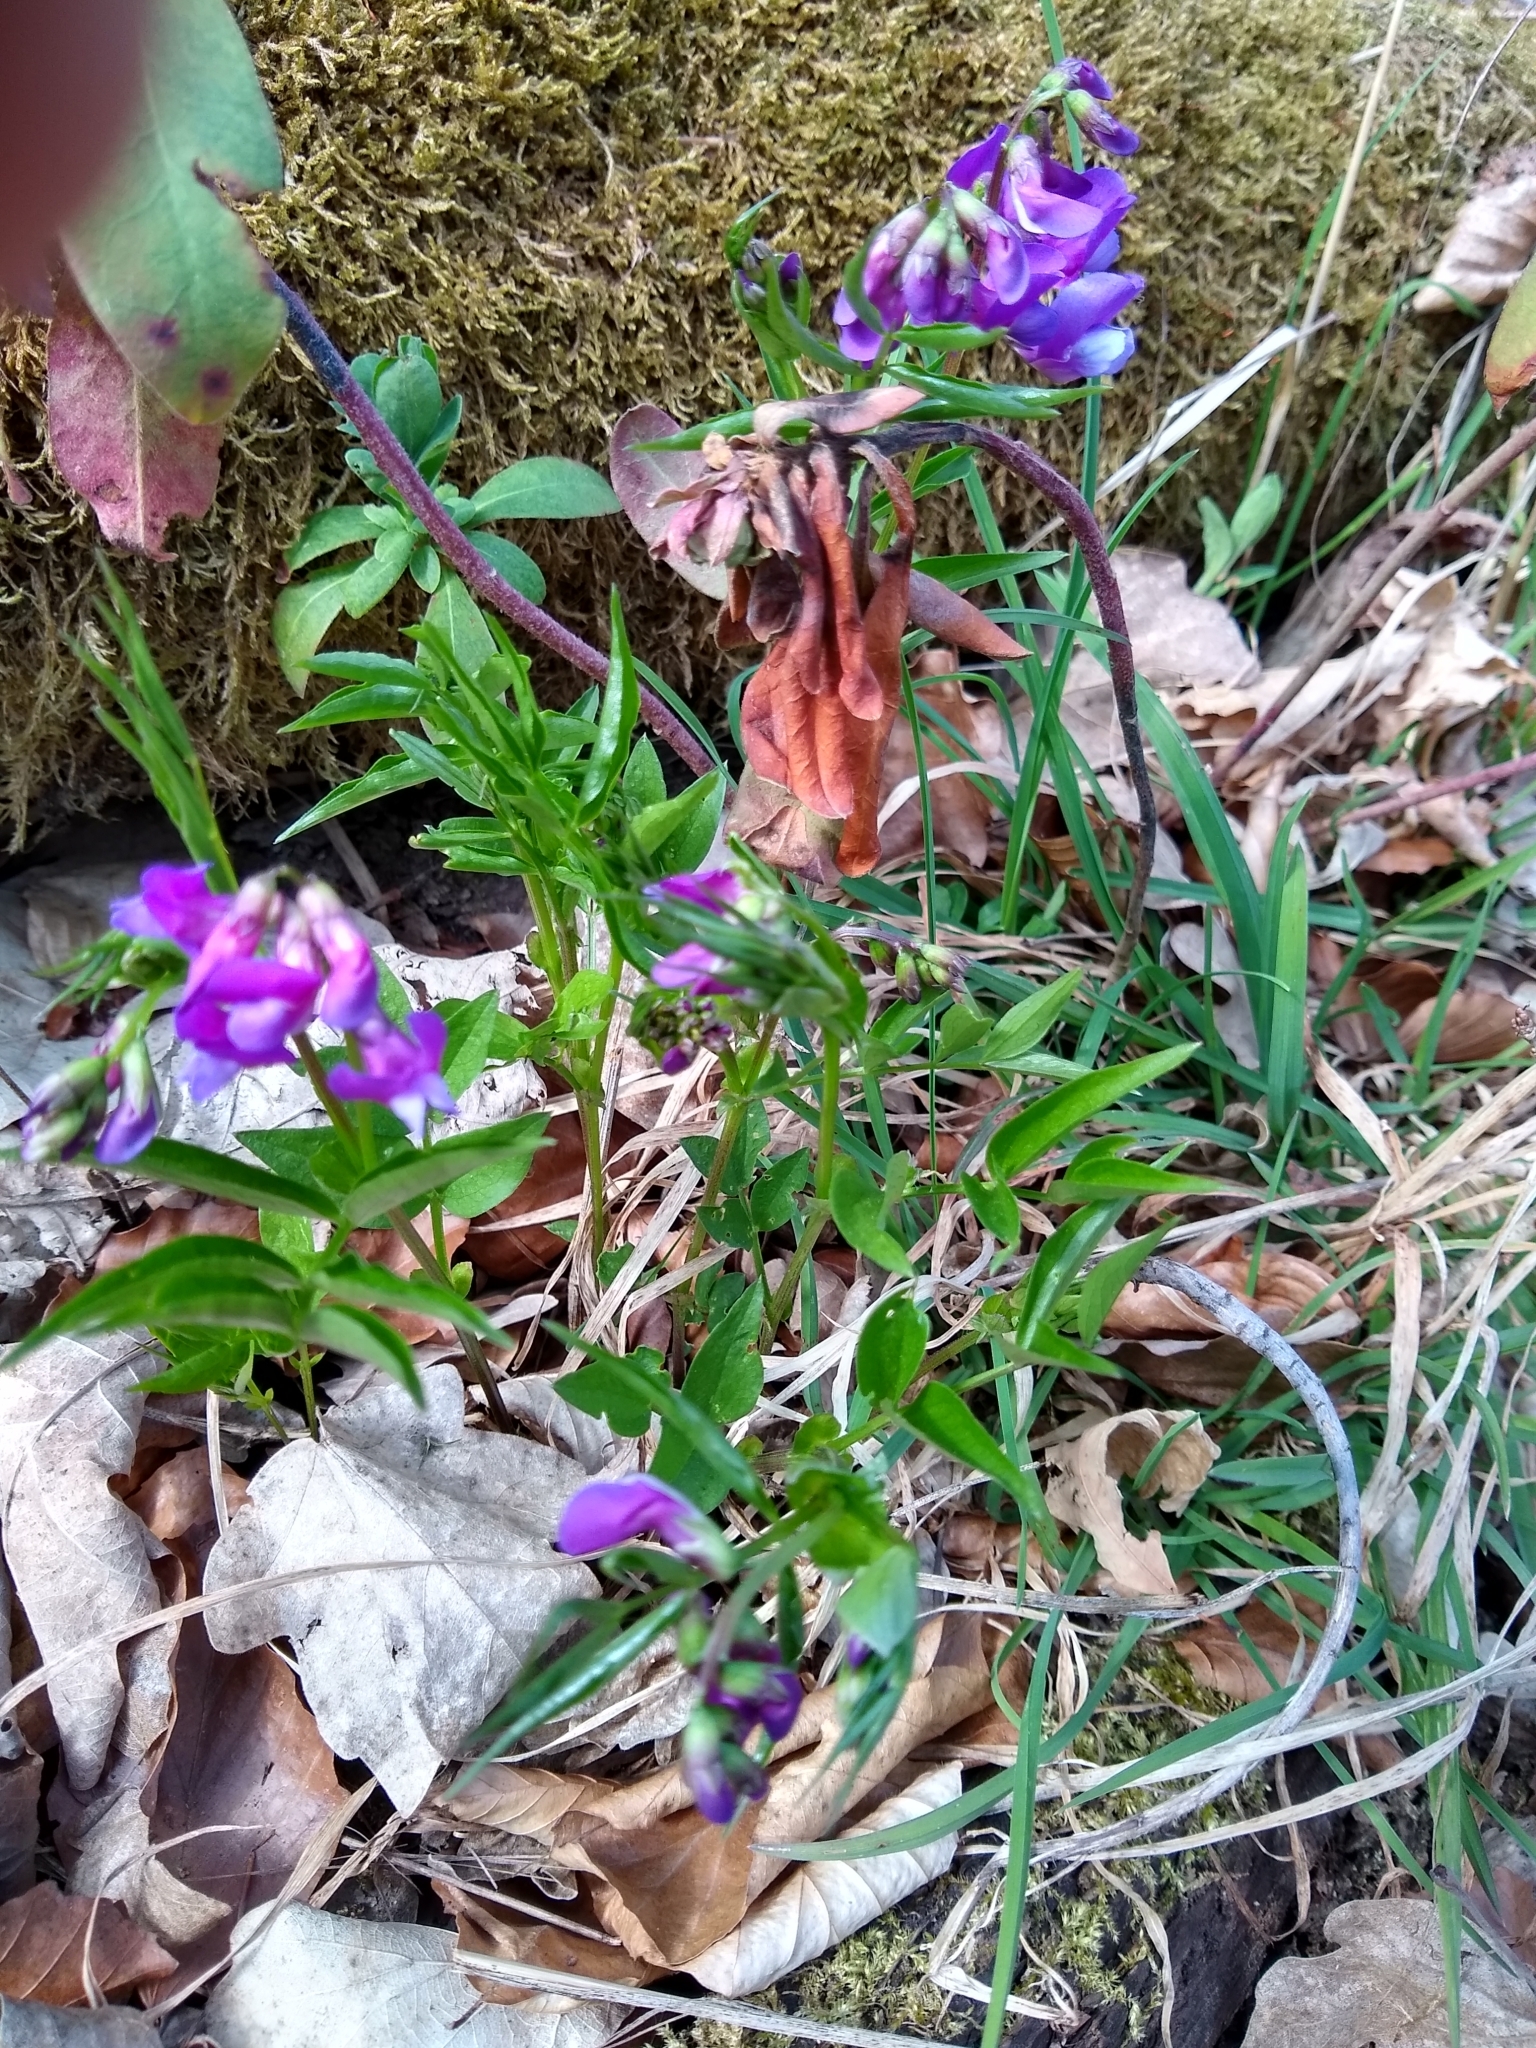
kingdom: Plantae
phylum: Tracheophyta
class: Magnoliopsida
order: Fabales
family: Fabaceae
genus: Lathyrus
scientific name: Lathyrus vernus
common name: Spring pea
